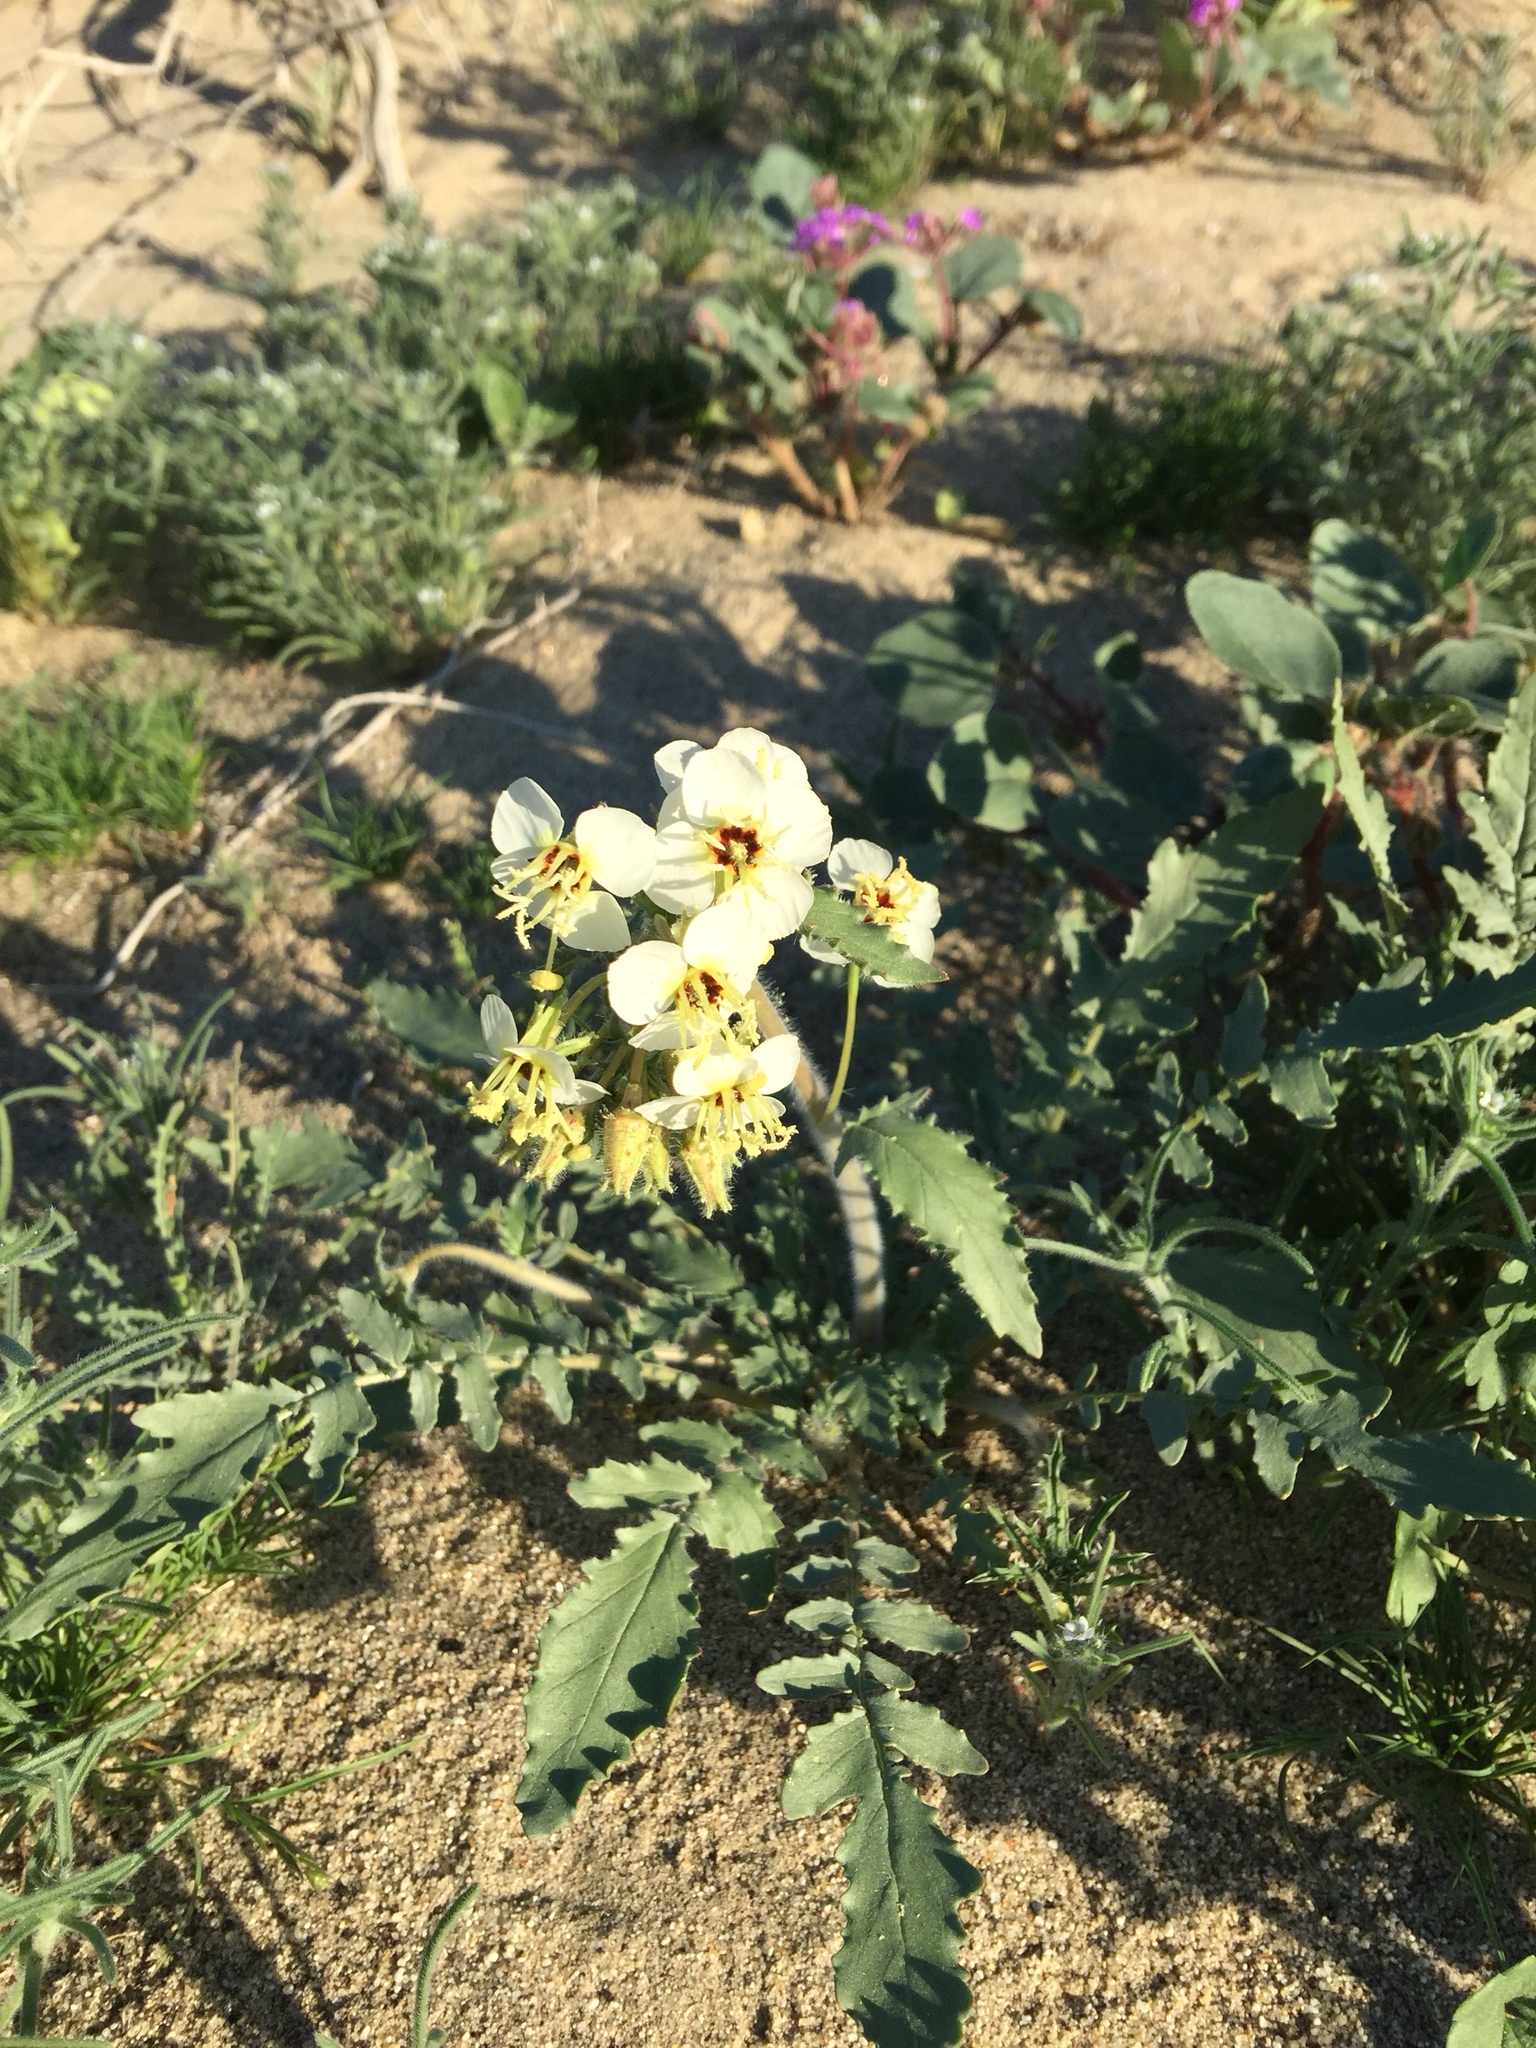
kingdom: Plantae
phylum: Tracheophyta
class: Magnoliopsida
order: Myrtales
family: Onagraceae
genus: Chylismia
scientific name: Chylismia claviformis
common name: Browneyes
